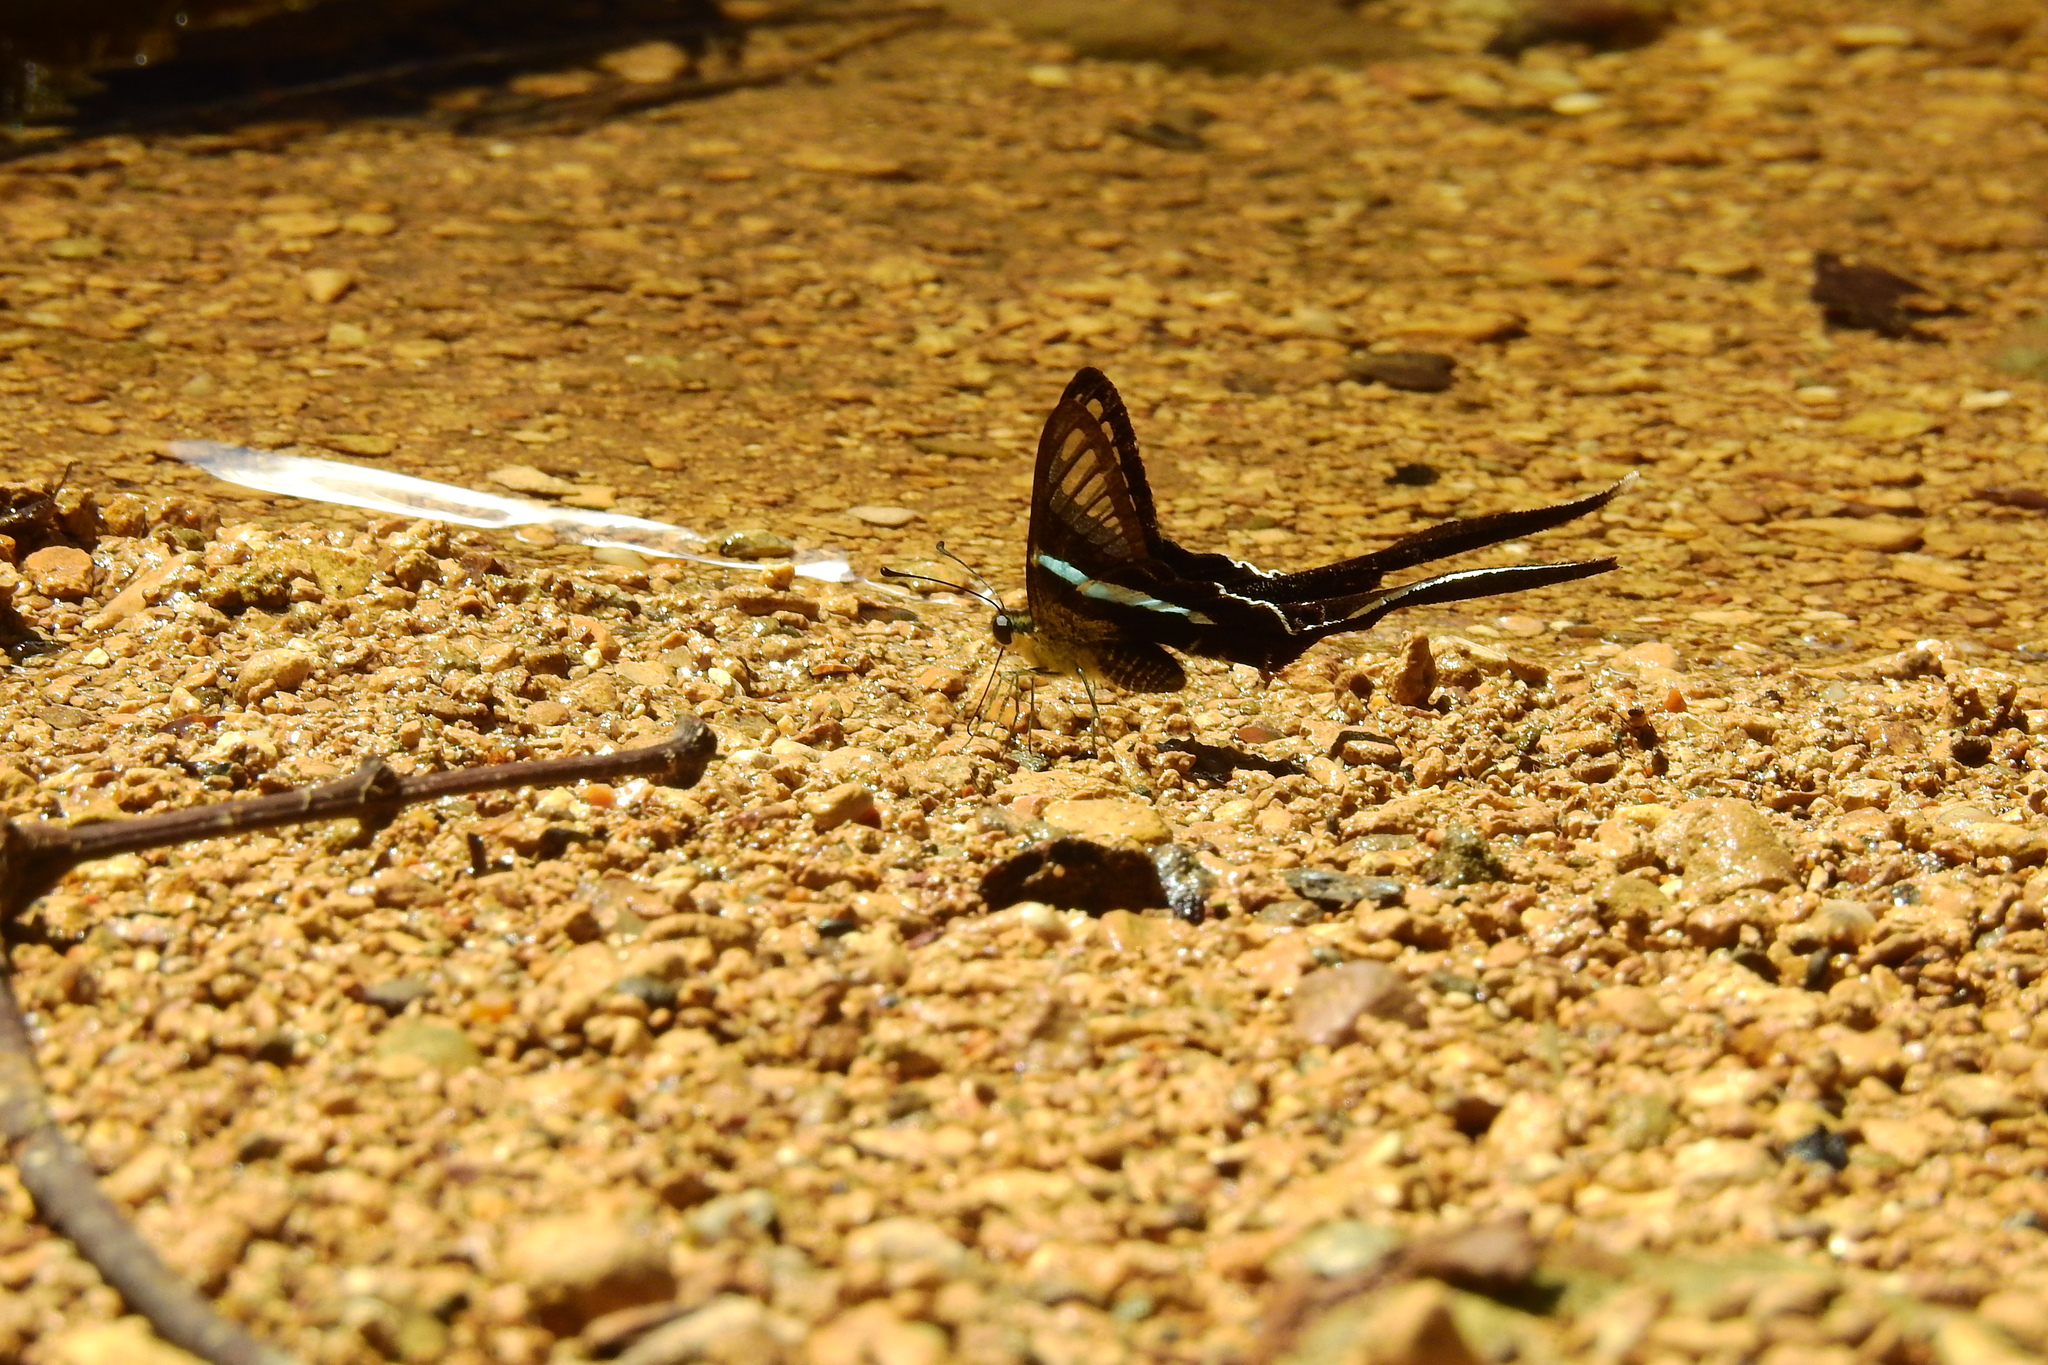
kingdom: Animalia
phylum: Arthropoda
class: Insecta
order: Lepidoptera
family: Papilionidae
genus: Lamproptera
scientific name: Lamproptera meges
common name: Green dragontail
